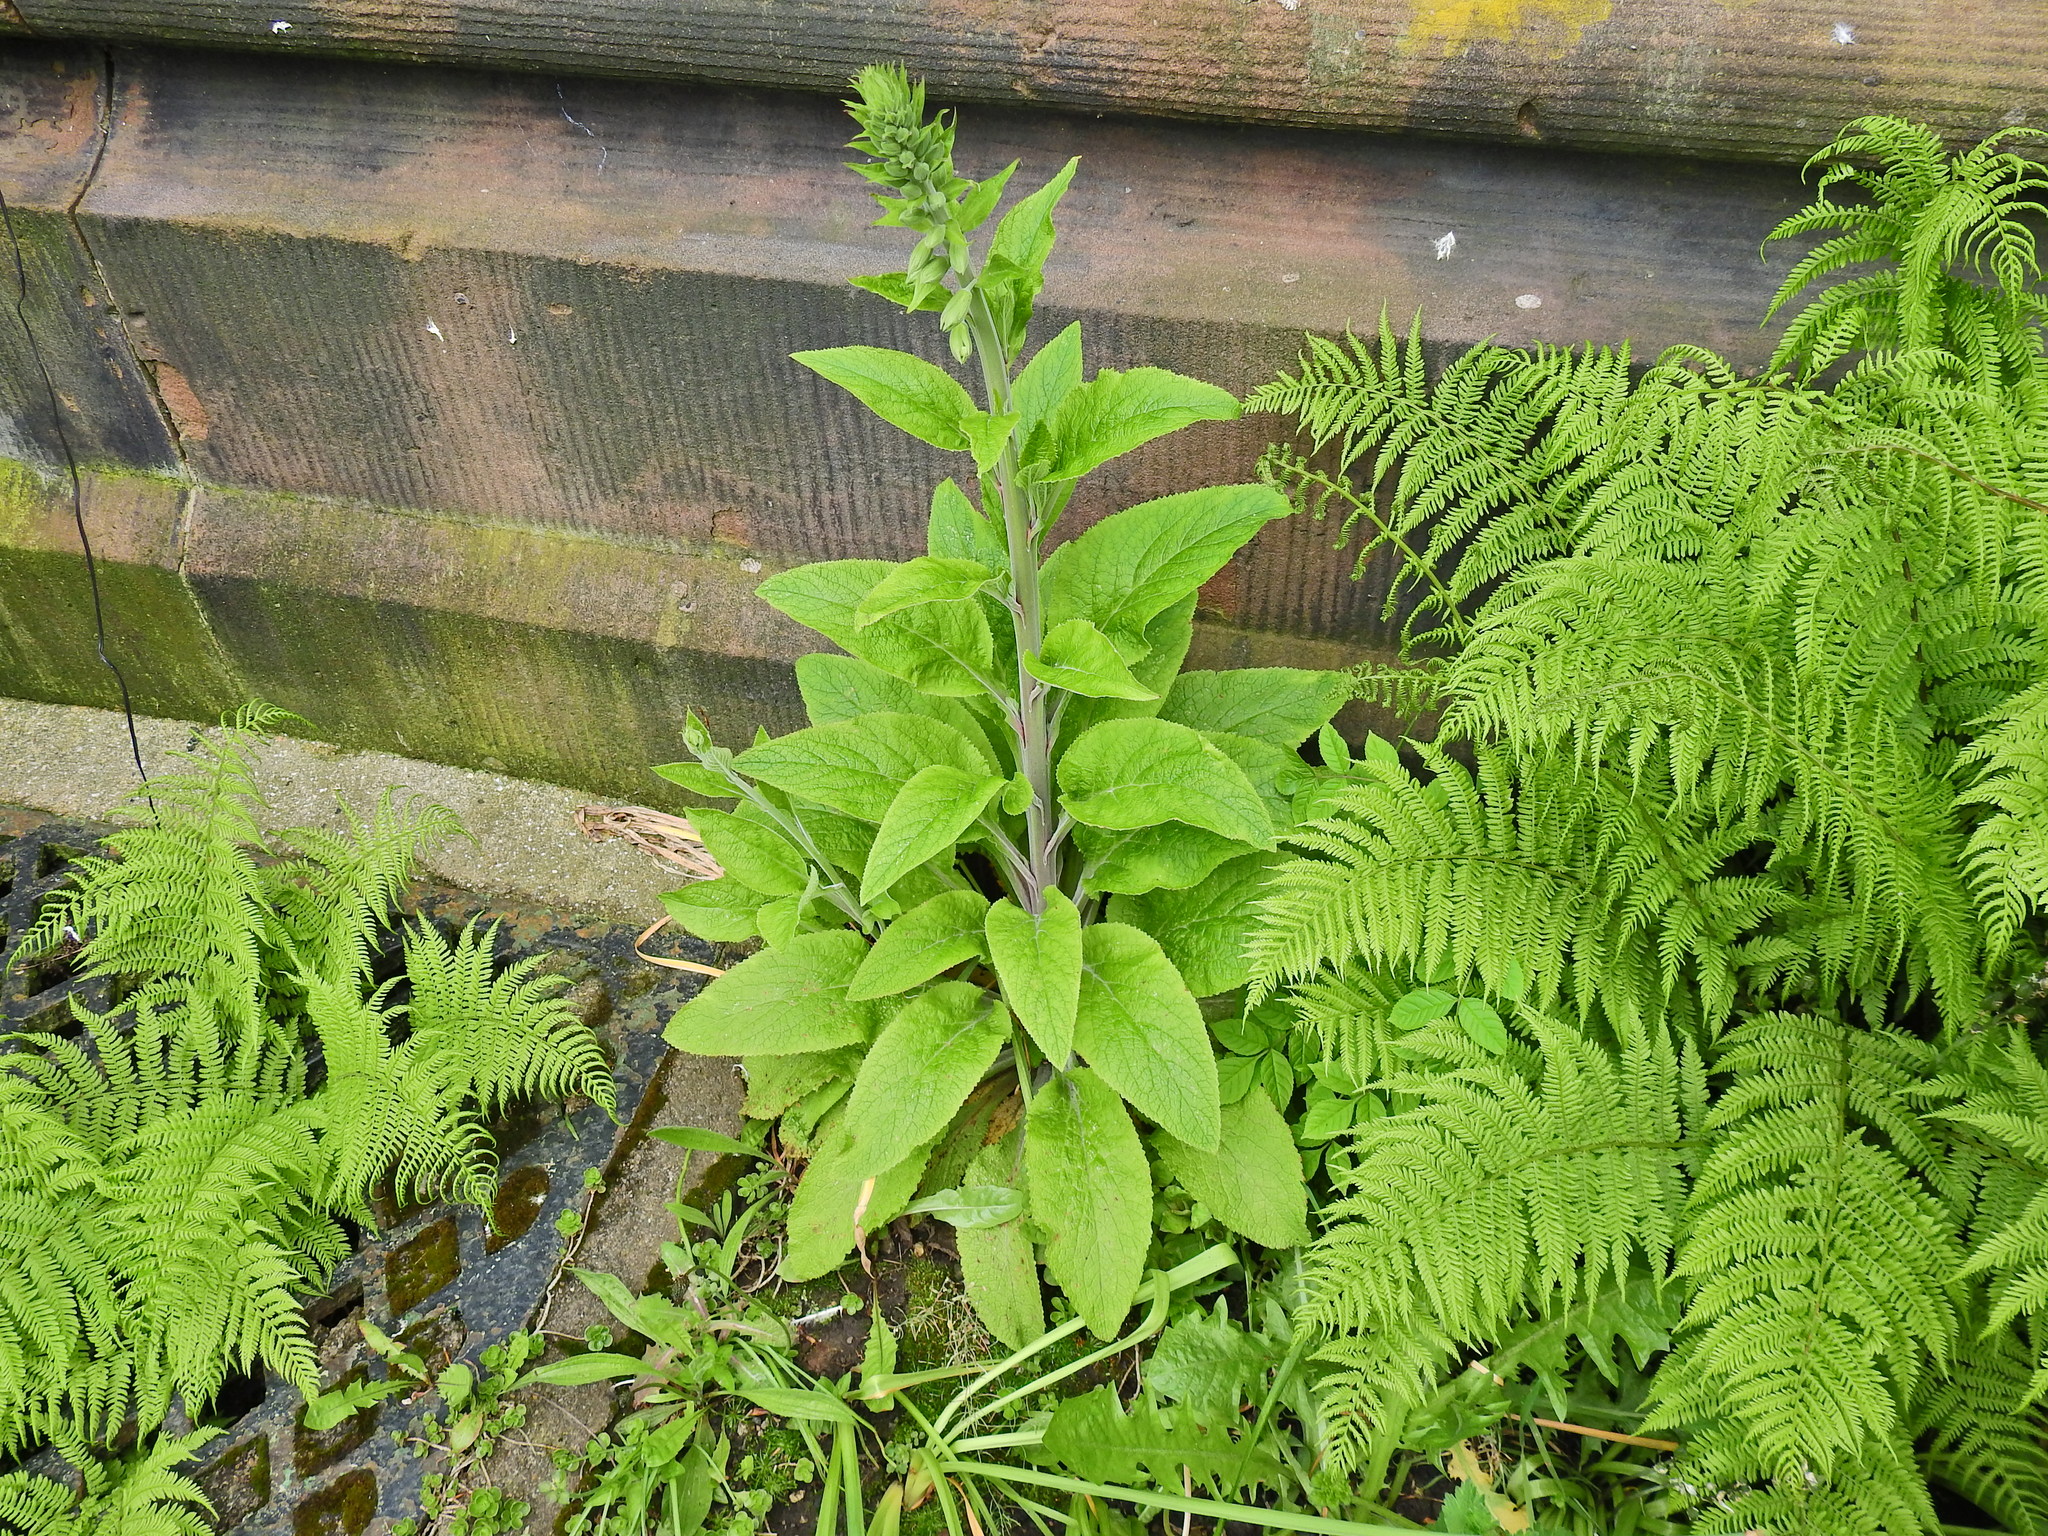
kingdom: Plantae
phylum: Tracheophyta
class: Magnoliopsida
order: Lamiales
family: Plantaginaceae
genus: Digitalis
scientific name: Digitalis purpurea
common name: Foxglove
